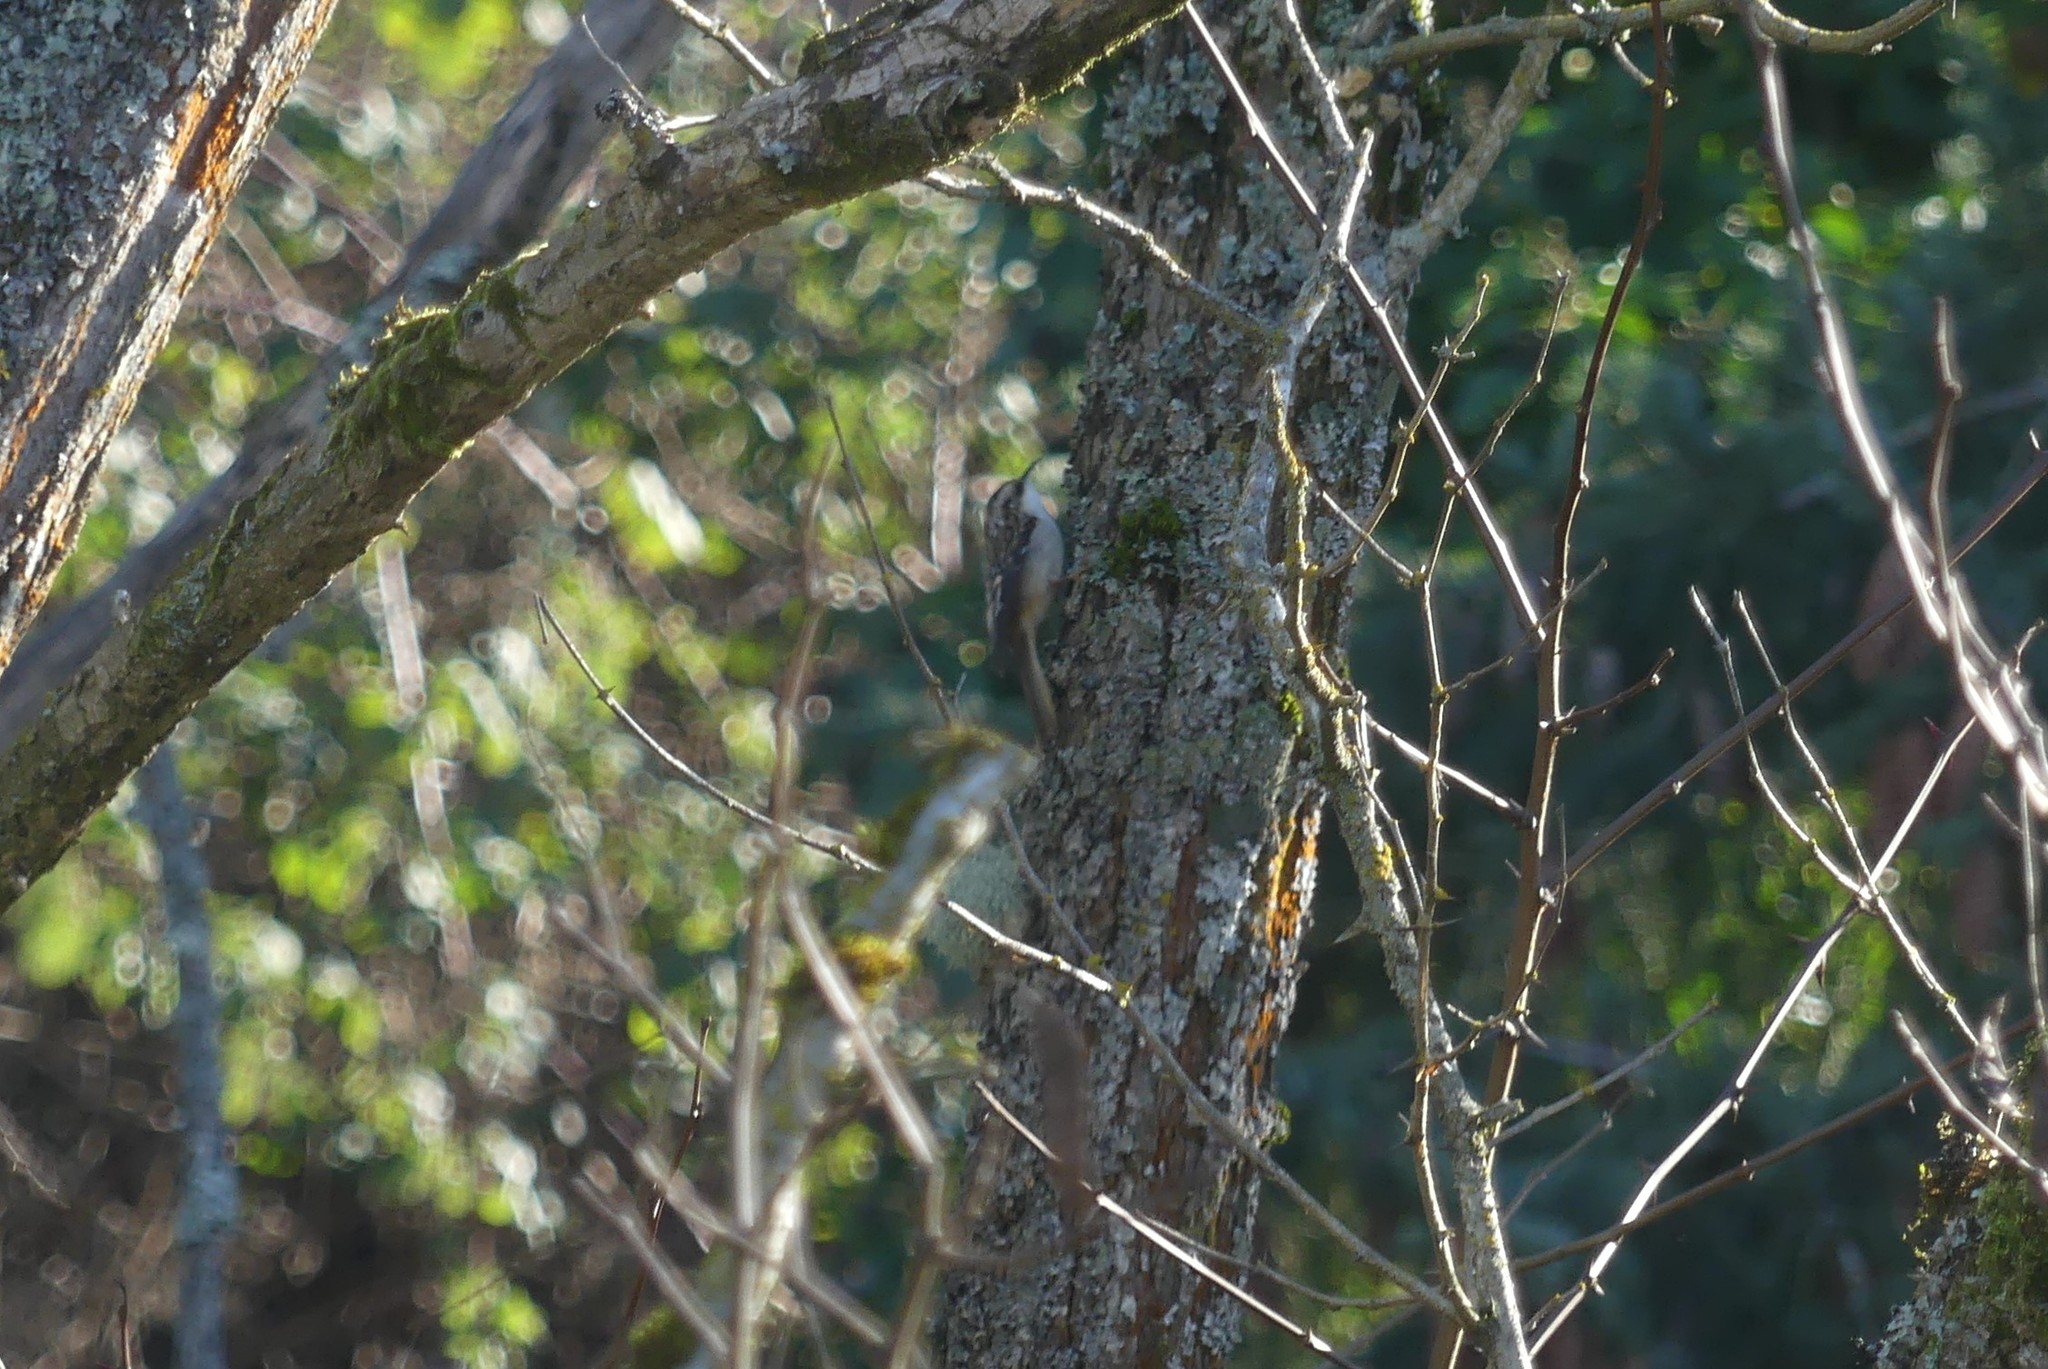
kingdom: Animalia
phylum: Chordata
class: Aves
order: Passeriformes
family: Certhiidae
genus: Certhia
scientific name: Certhia americana
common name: Brown creeper
